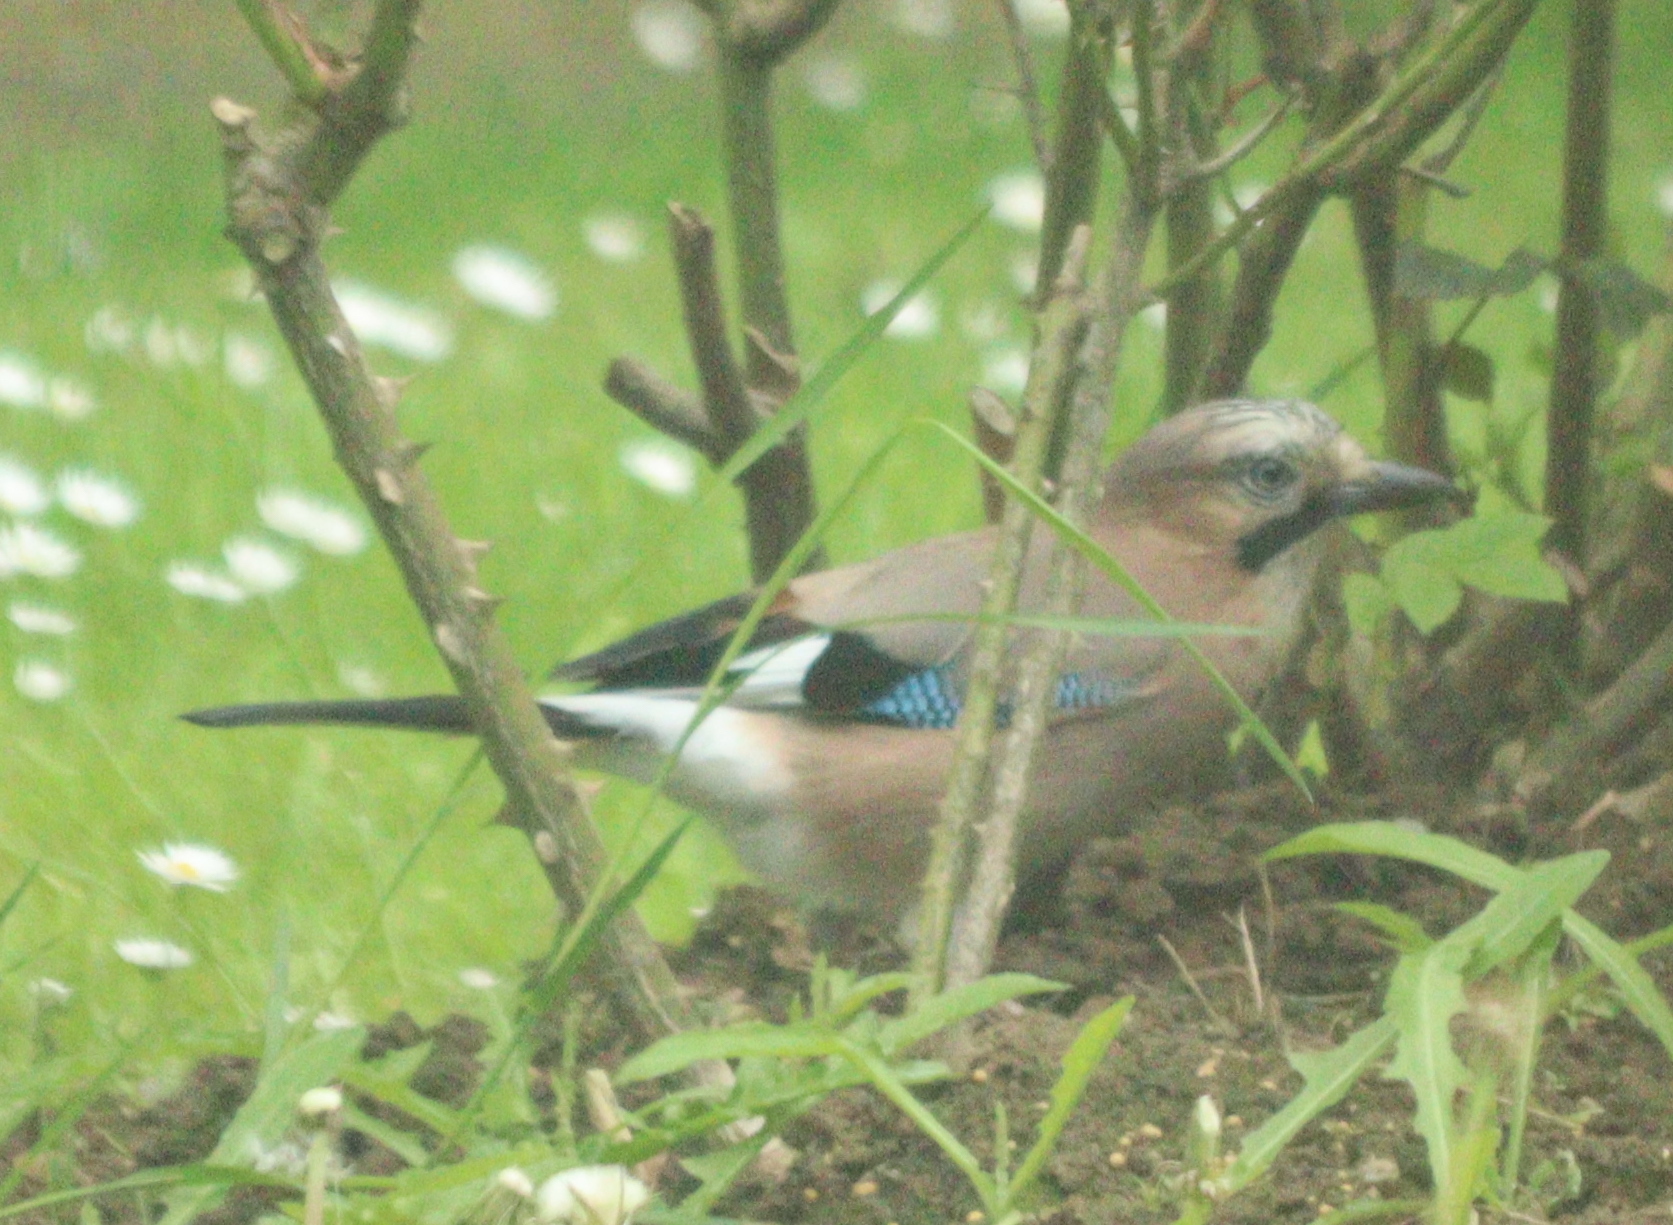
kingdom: Animalia
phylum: Chordata
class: Aves
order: Passeriformes
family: Corvidae
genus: Garrulus
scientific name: Garrulus glandarius
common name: Eurasian jay
